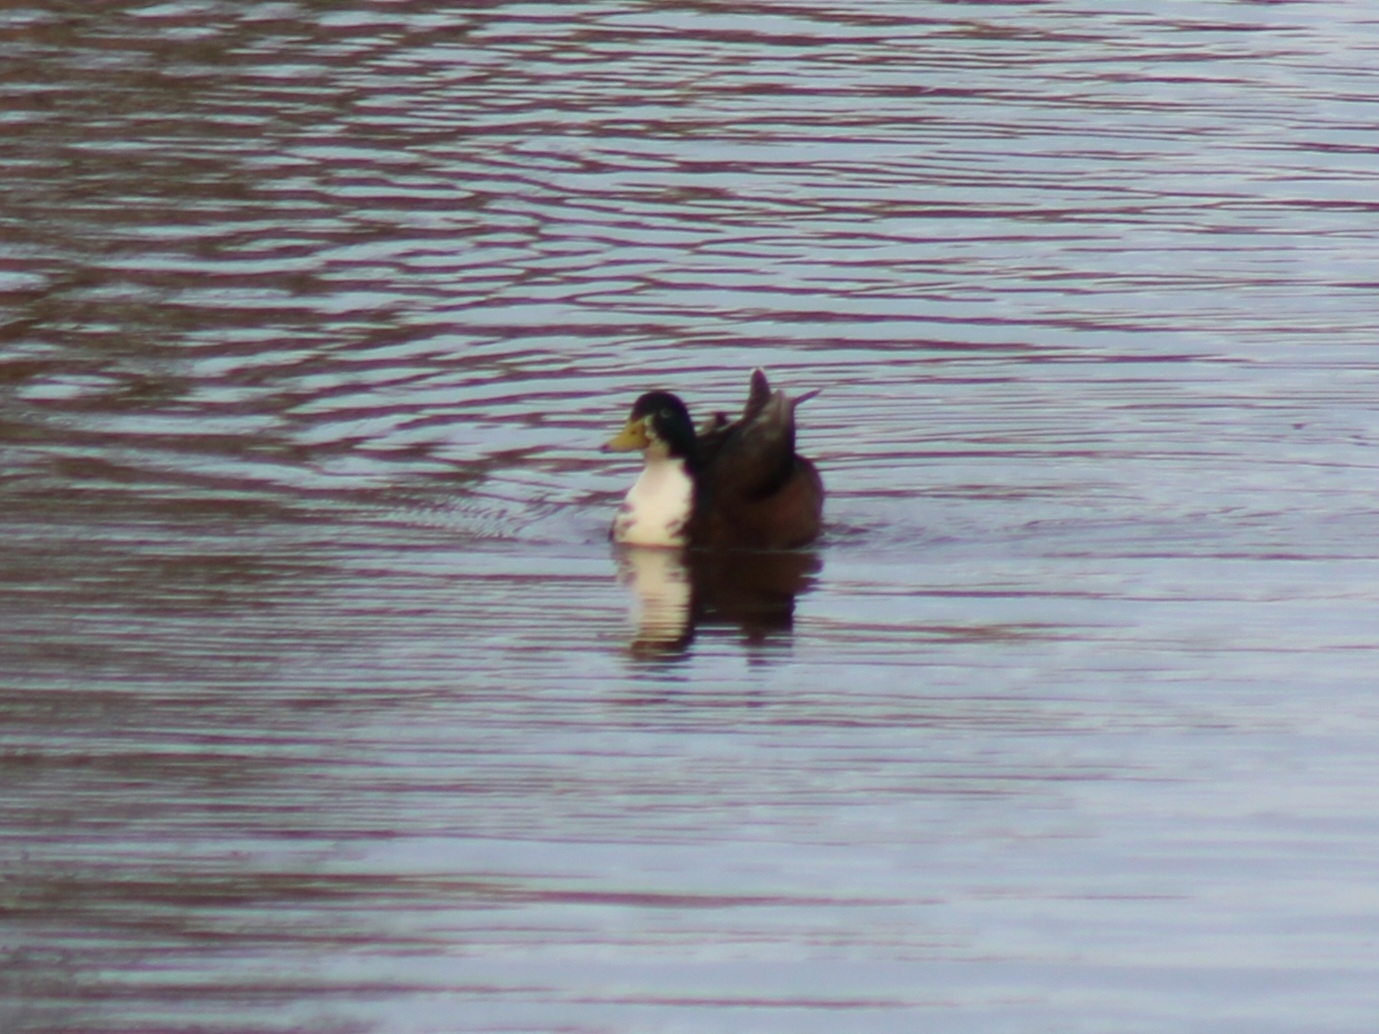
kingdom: Animalia
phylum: Chordata
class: Aves
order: Anseriformes
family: Anatidae
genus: Anas
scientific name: Anas platyrhynchos
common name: Mallard
